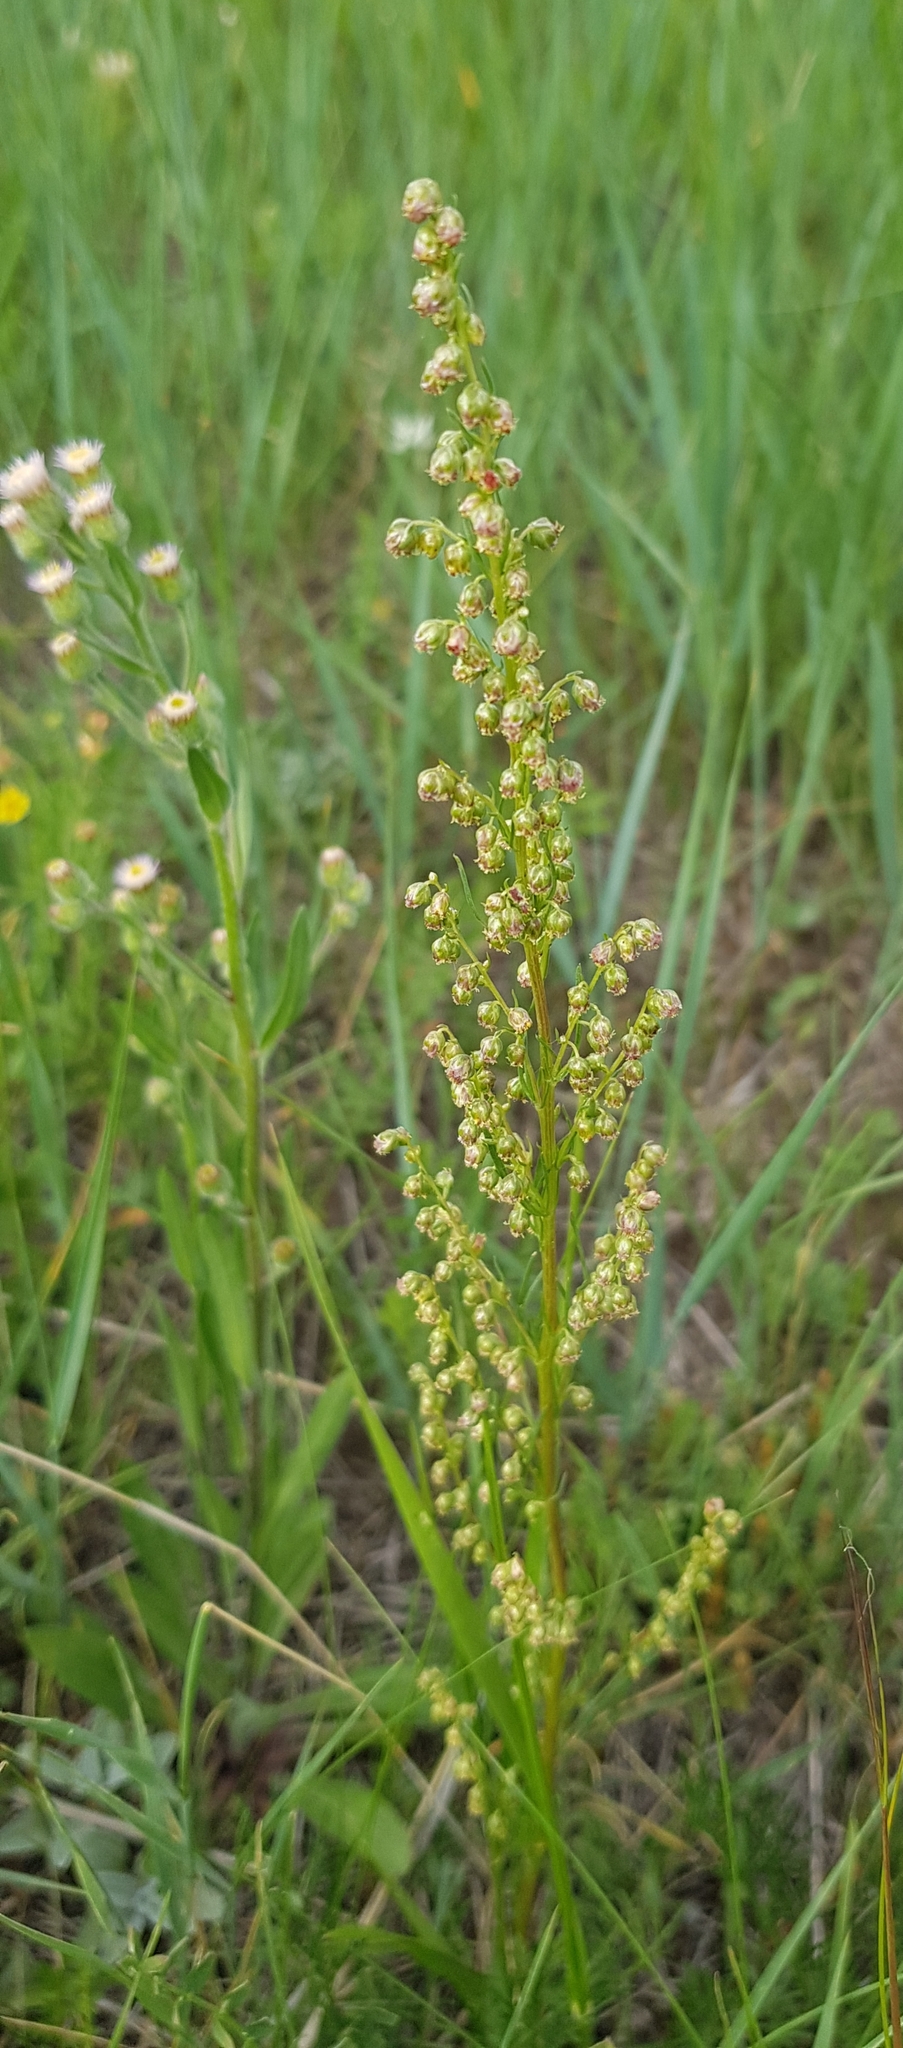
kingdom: Plantae
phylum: Tracheophyta
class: Magnoliopsida
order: Asterales
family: Asteraceae
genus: Artemisia
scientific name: Artemisia pubescens
